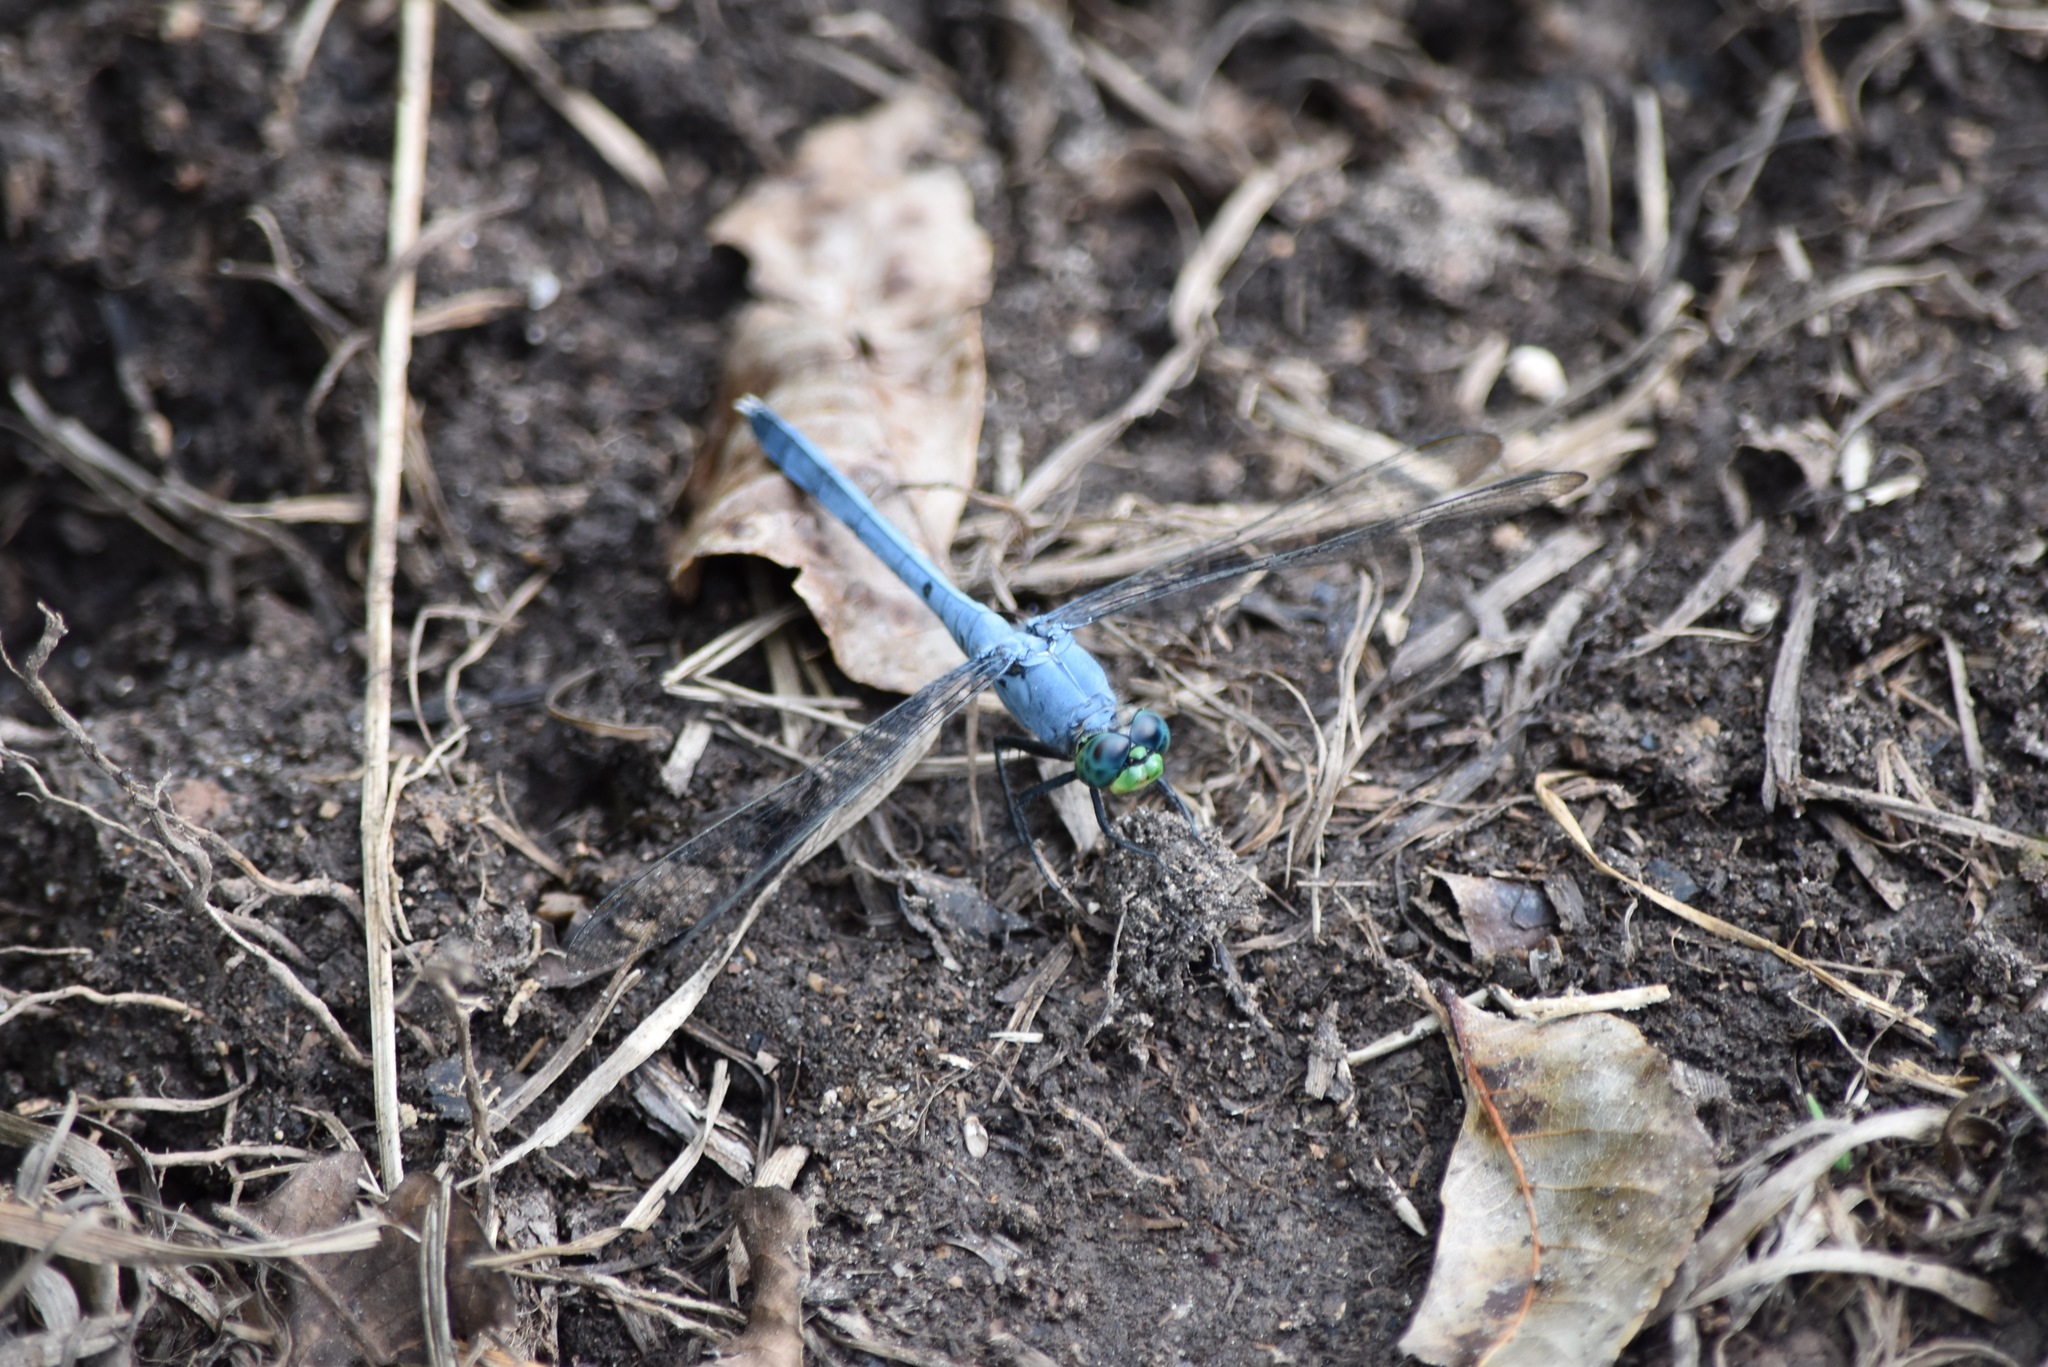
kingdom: Animalia
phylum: Arthropoda
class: Insecta
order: Odonata
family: Libellulidae
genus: Erythemis
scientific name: Erythemis simplicicollis
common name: Eastern pondhawk
